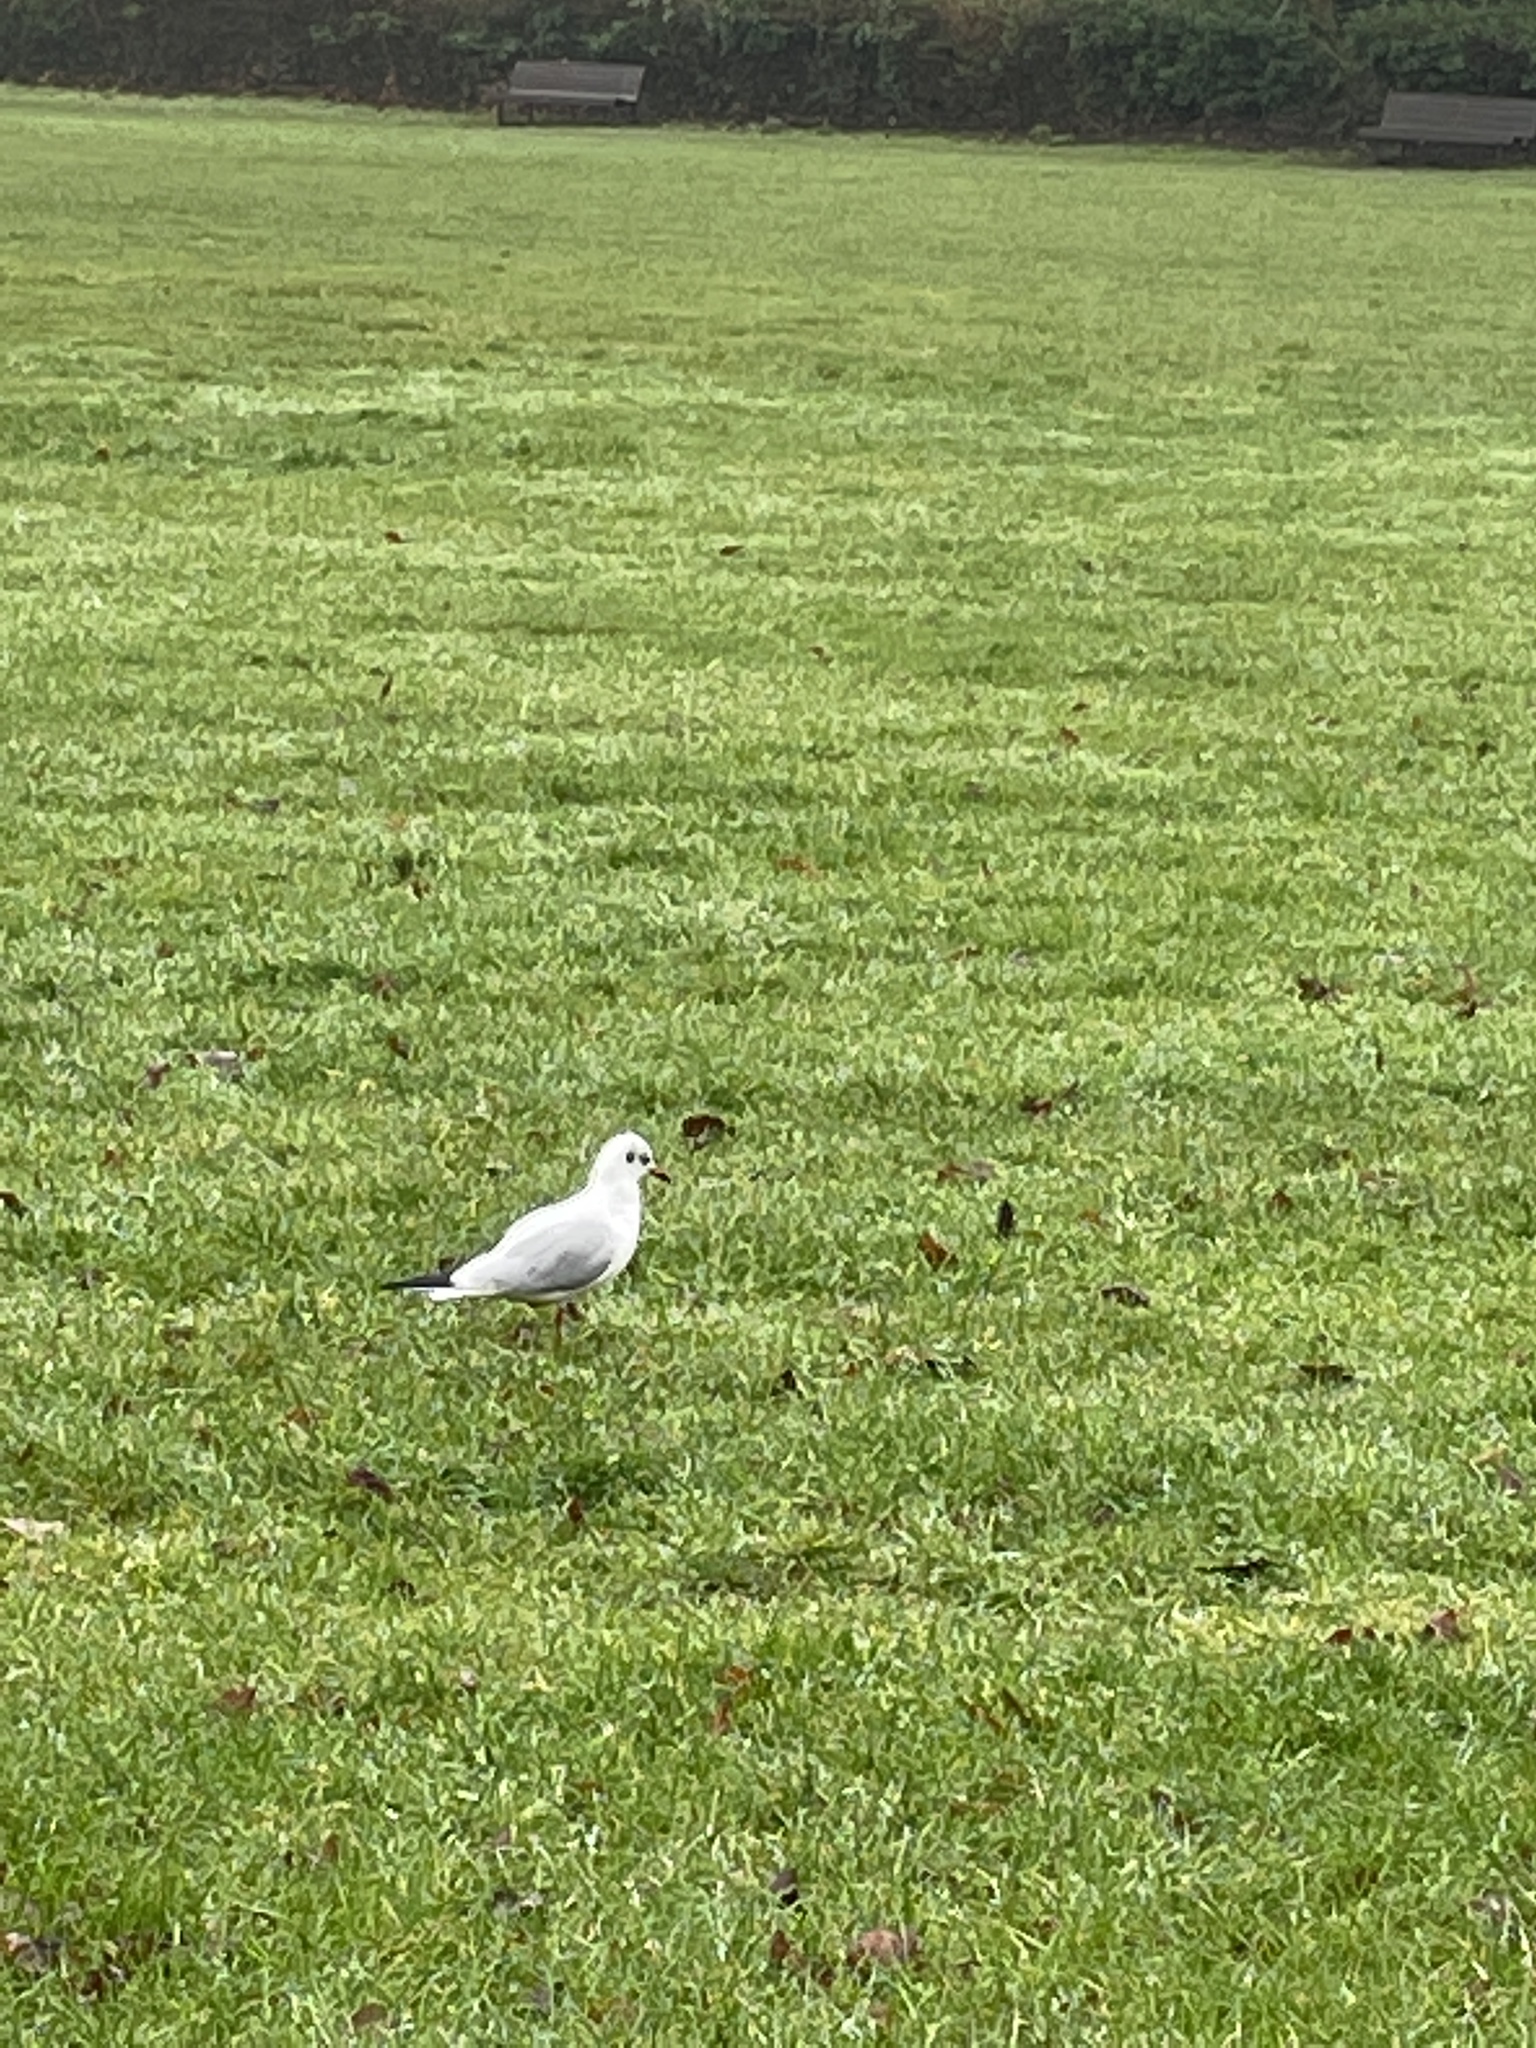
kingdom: Animalia
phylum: Chordata
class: Aves
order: Charadriiformes
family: Laridae
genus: Chroicocephalus
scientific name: Chroicocephalus ridibundus
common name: Black-headed gull
